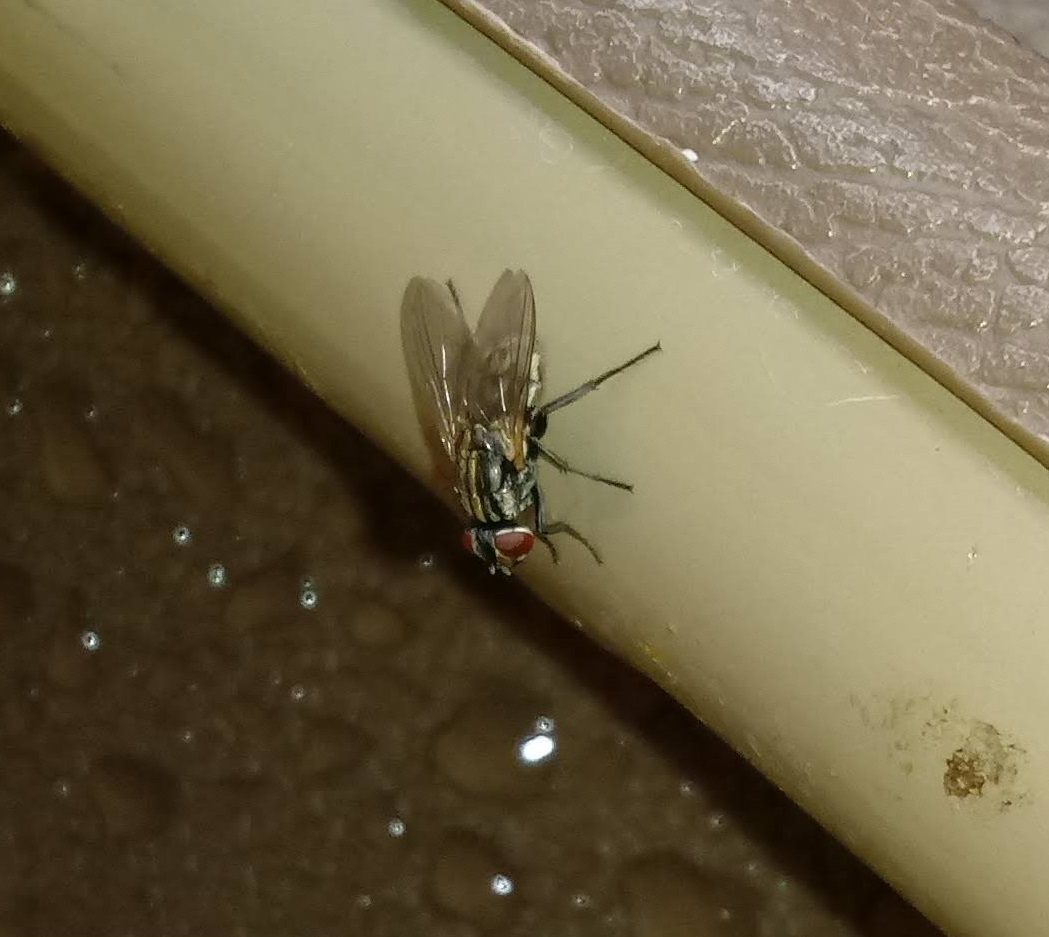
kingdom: Animalia
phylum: Arthropoda
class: Insecta
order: Diptera
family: Muscidae
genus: Musca
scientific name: Musca domestica
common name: House fly
